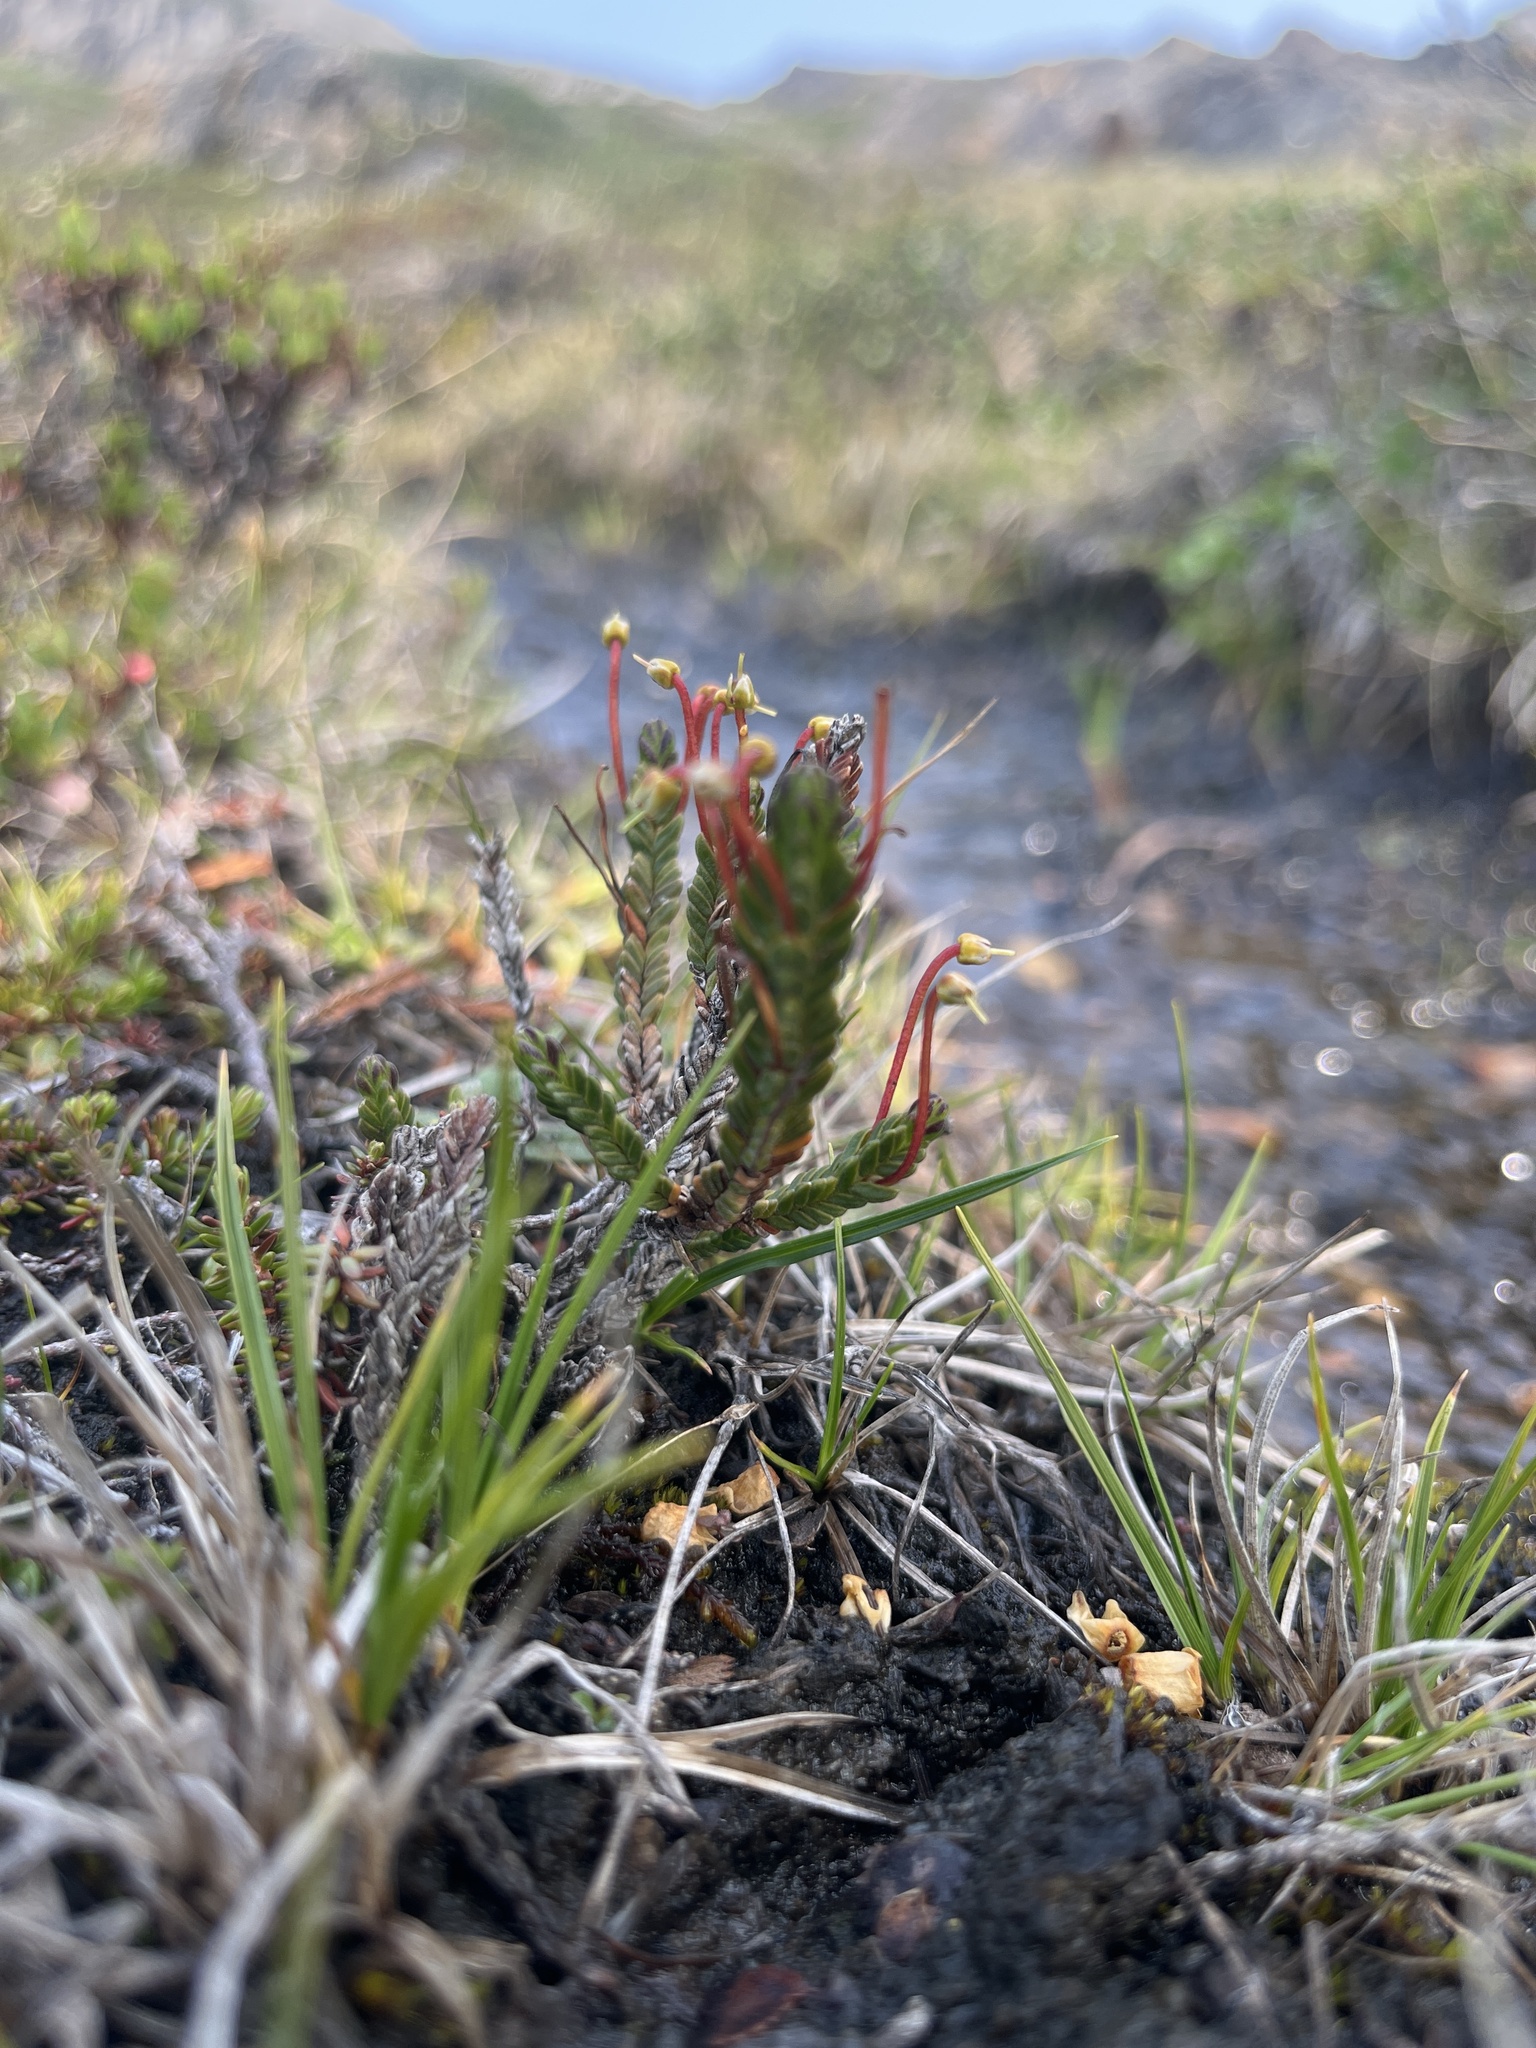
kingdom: Plantae
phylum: Tracheophyta
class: Magnoliopsida
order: Ericales
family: Ericaceae
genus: Cassiope
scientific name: Cassiope tetragona
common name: Arctic bell heather
